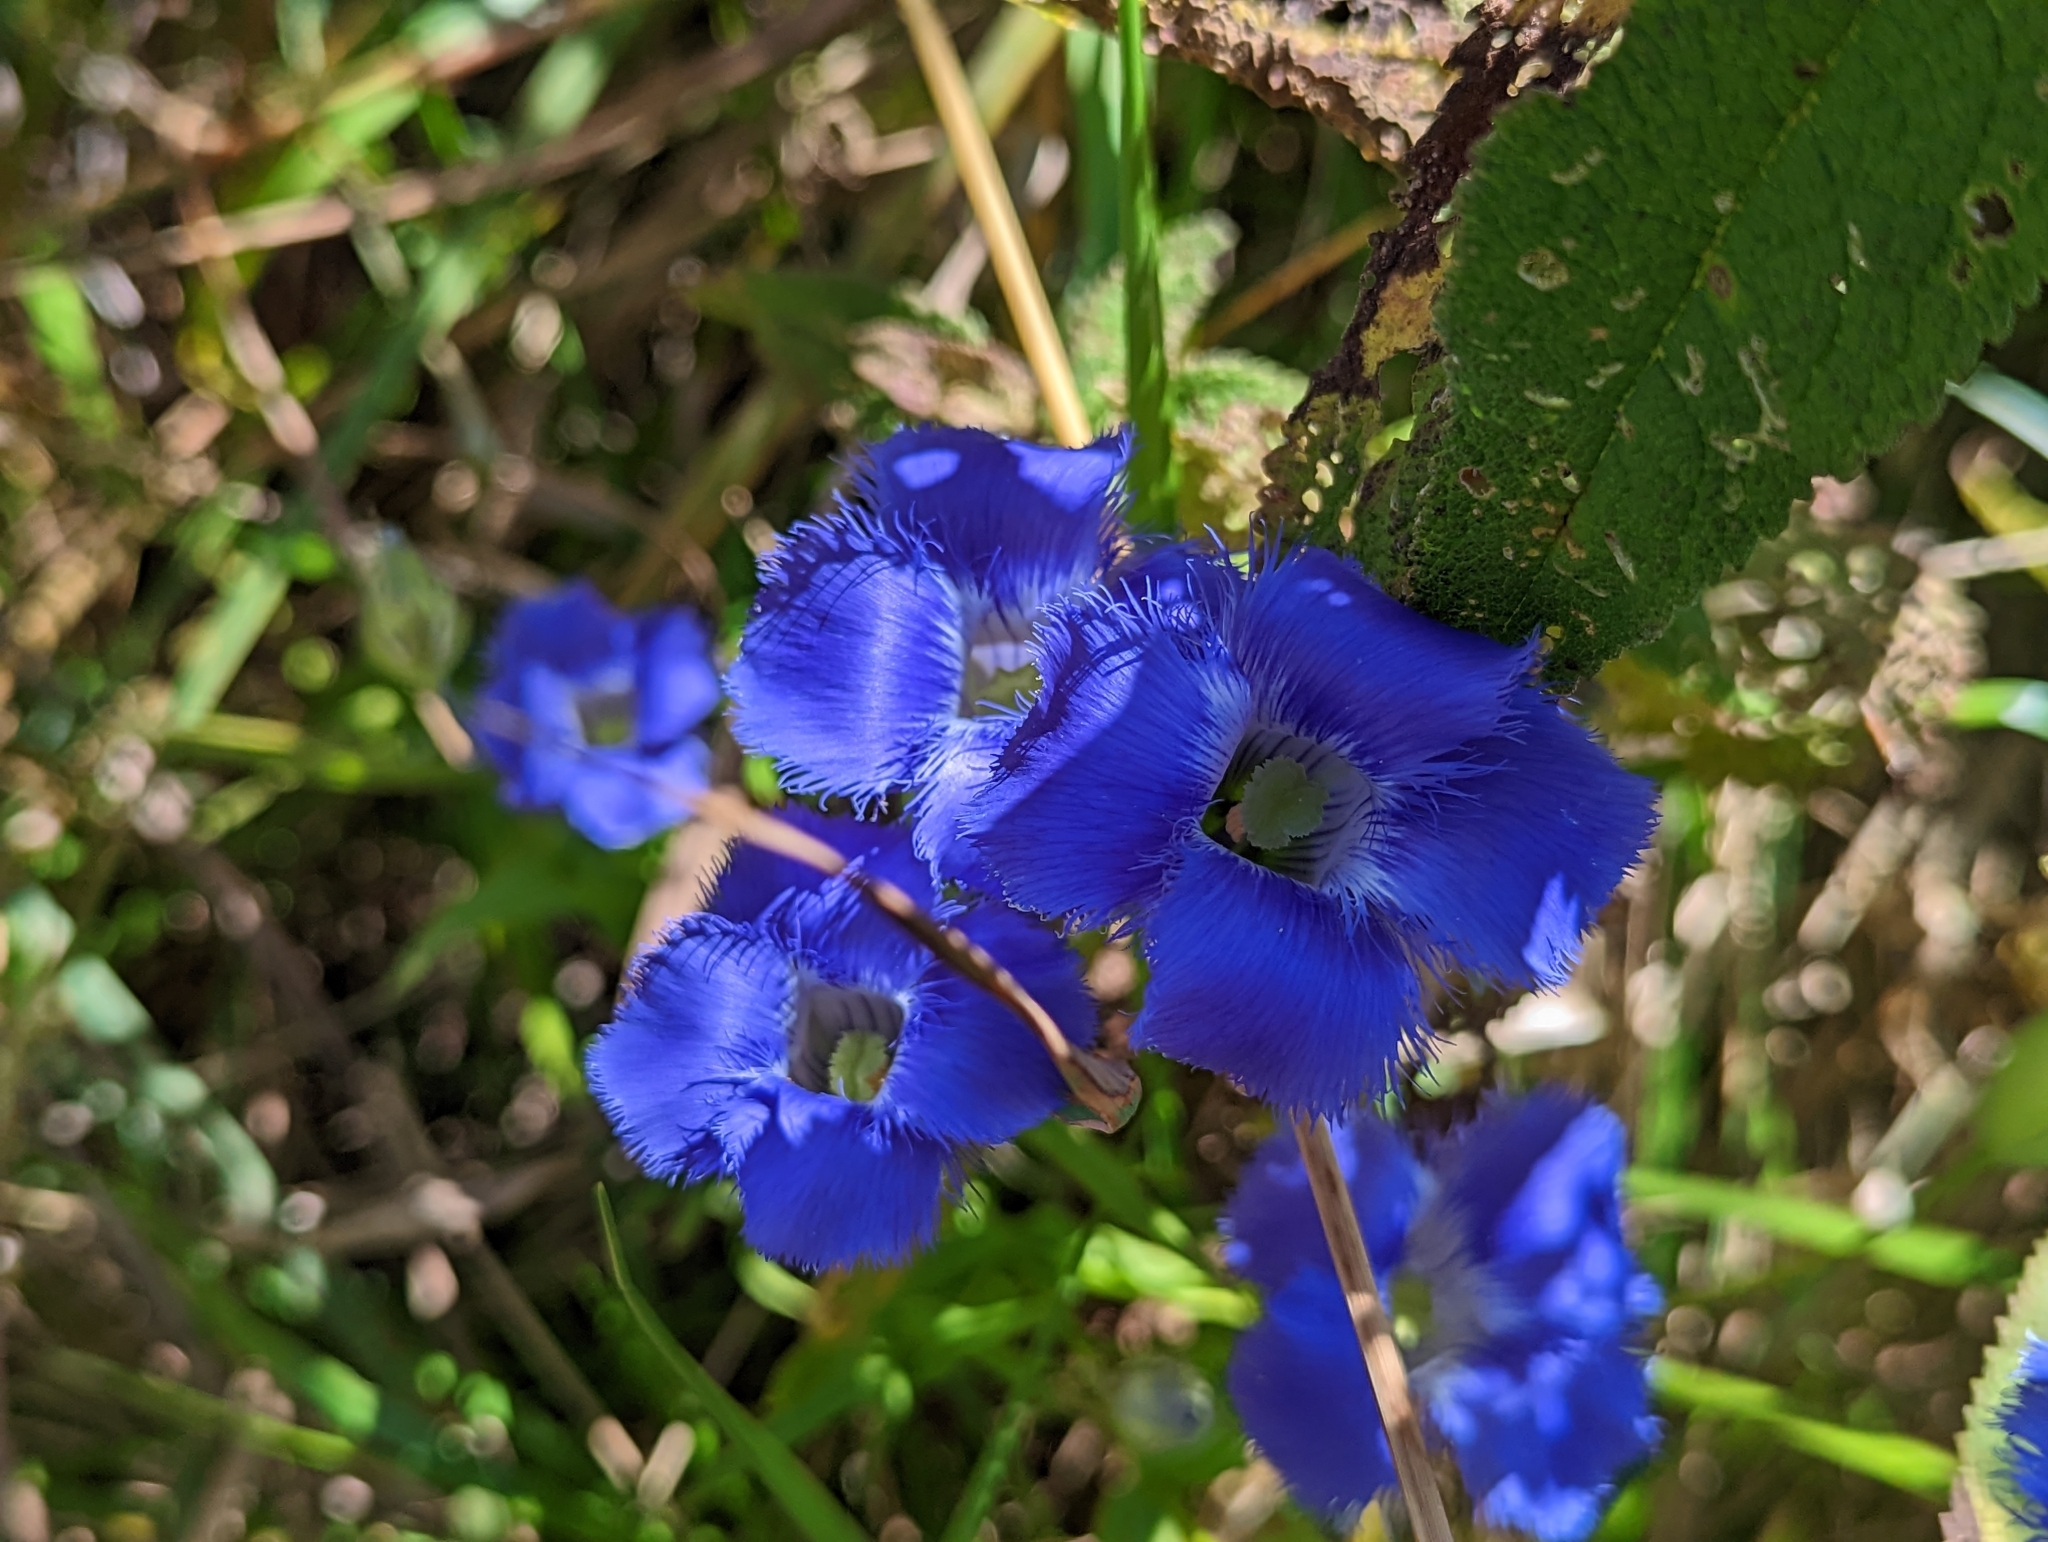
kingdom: Plantae
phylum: Tracheophyta
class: Magnoliopsida
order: Gentianales
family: Gentianaceae
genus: Gentianopsis
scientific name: Gentianopsis crinita
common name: Fringed-gentian
